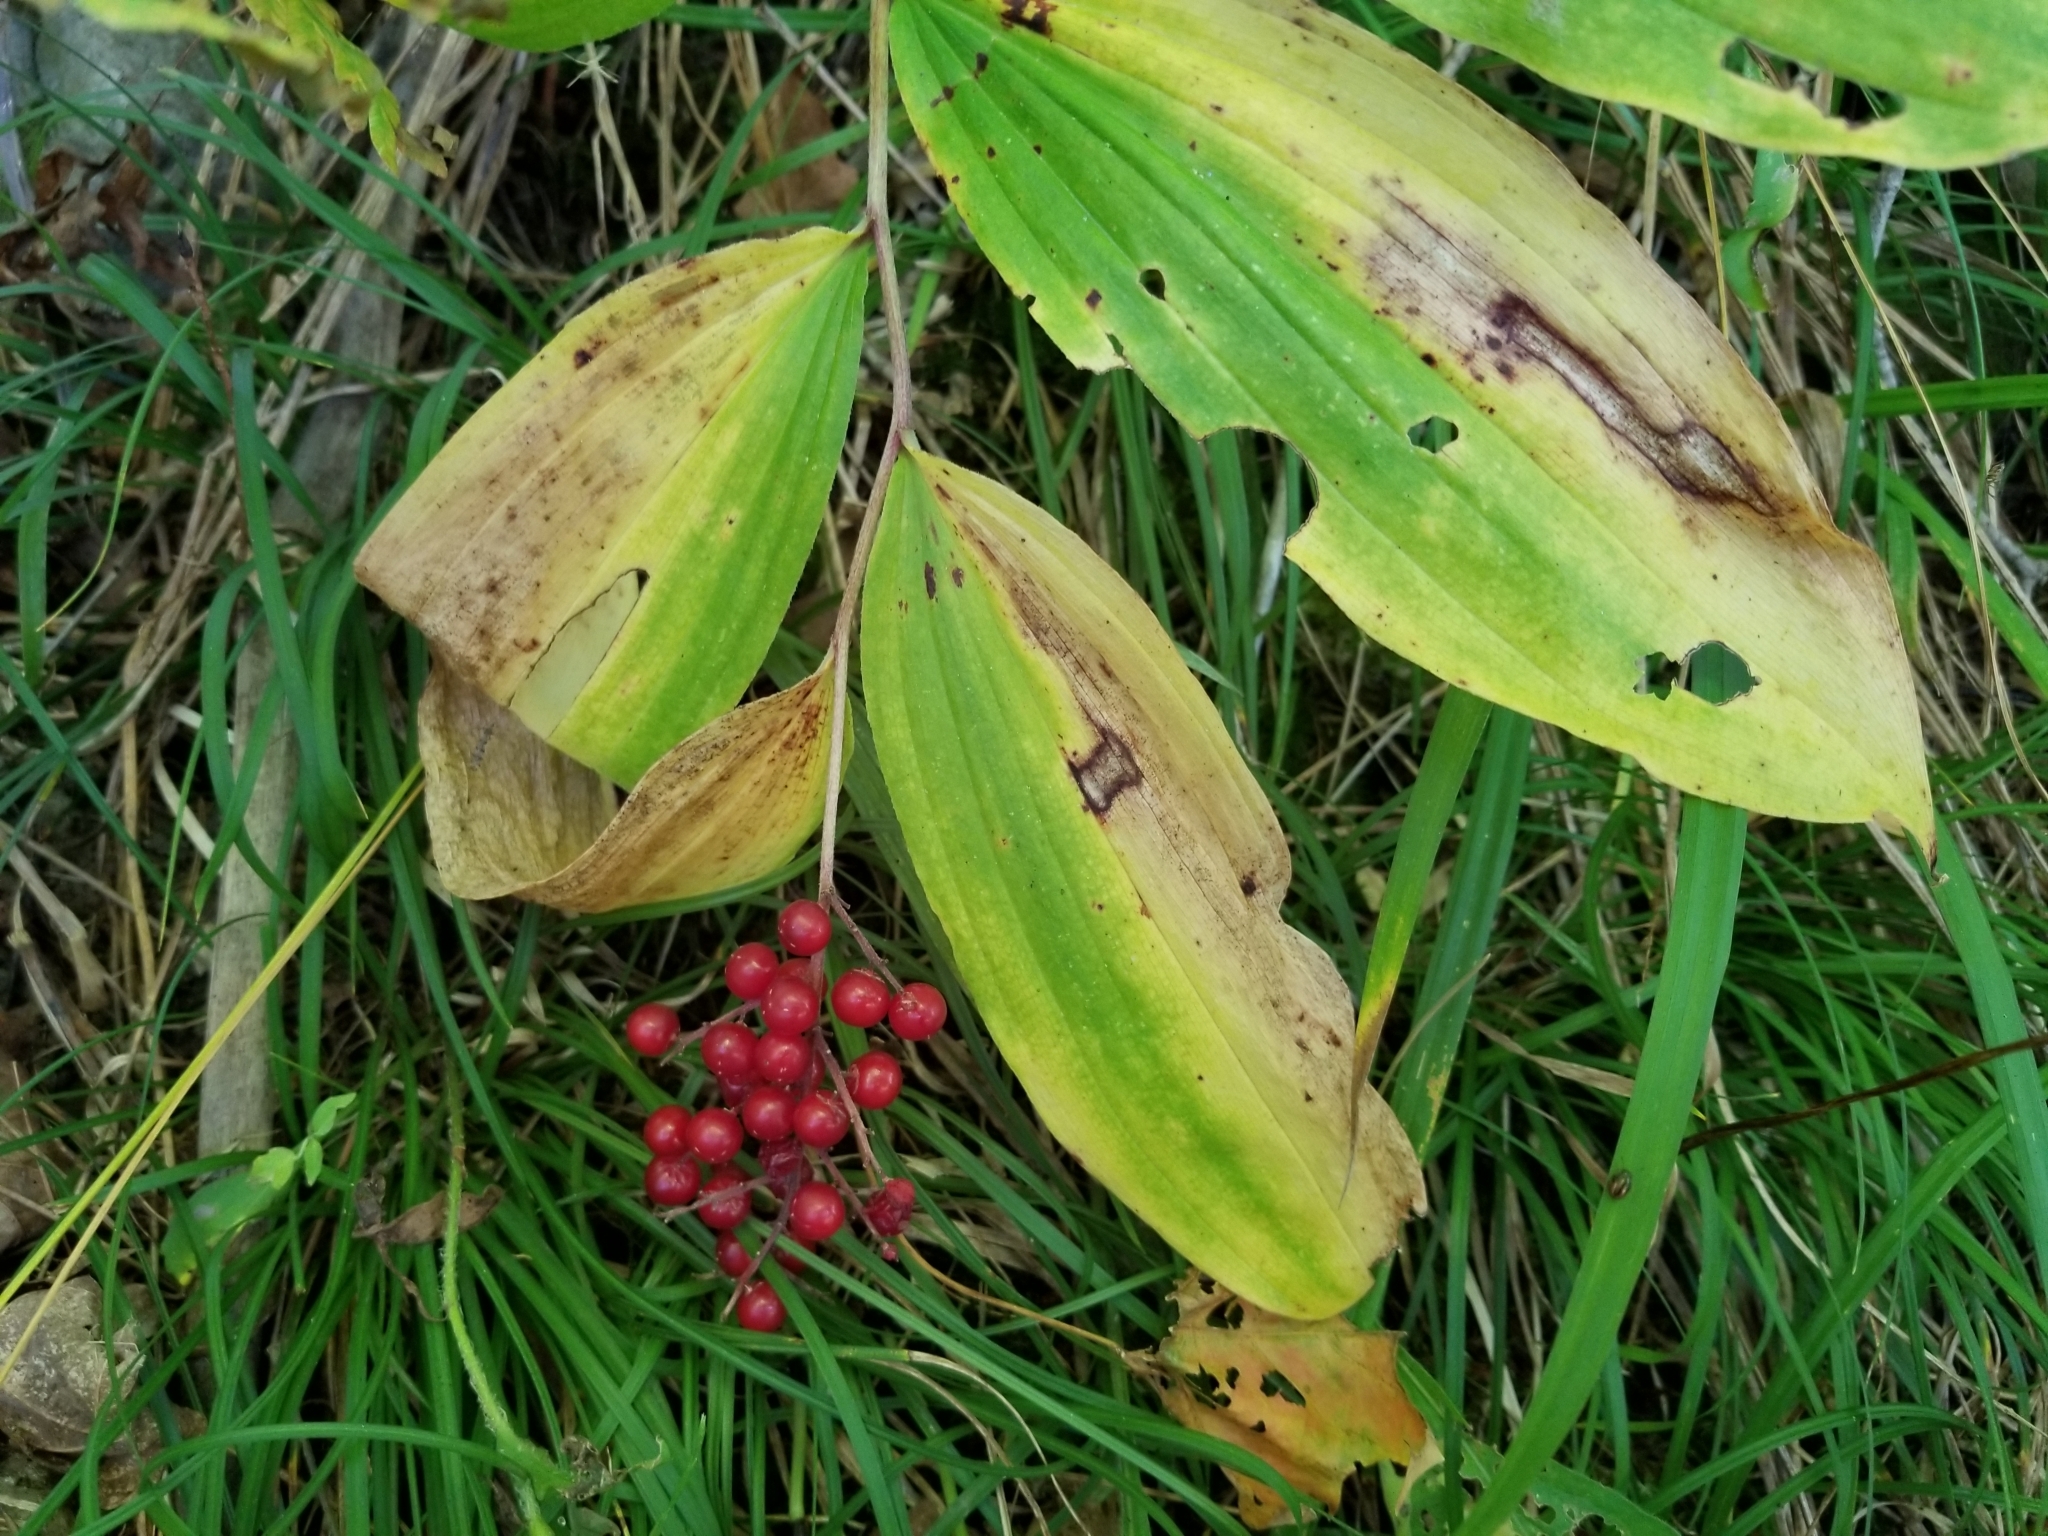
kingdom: Plantae
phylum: Tracheophyta
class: Liliopsida
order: Asparagales
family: Asparagaceae
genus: Maianthemum
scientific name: Maianthemum racemosum
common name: False spikenard
